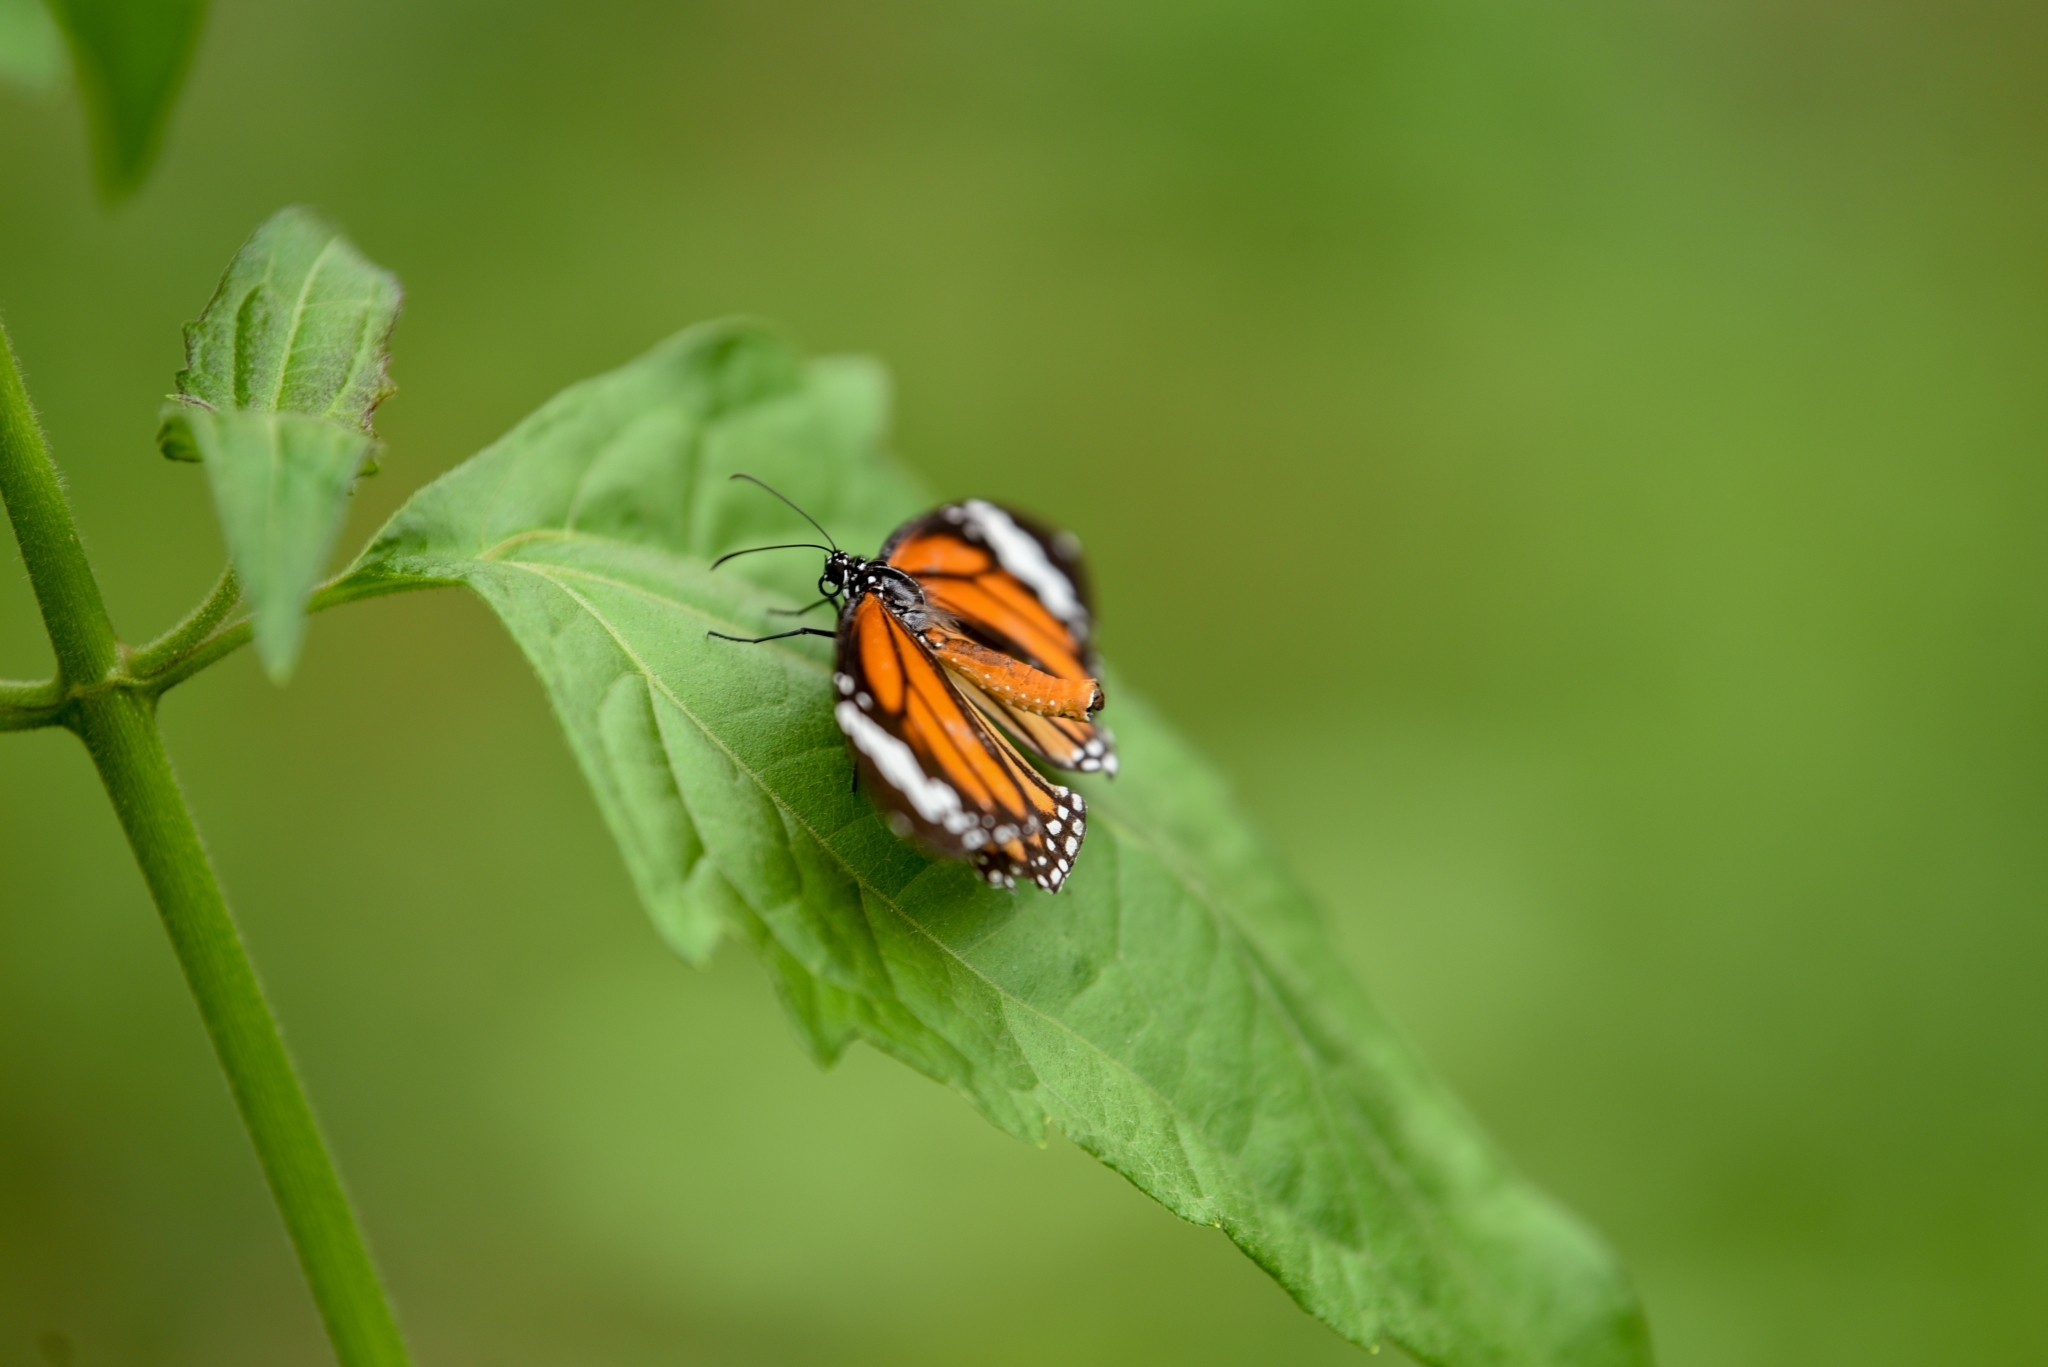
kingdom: Animalia
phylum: Arthropoda
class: Insecta
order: Lepidoptera
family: Nymphalidae
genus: Danaus
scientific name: Danaus genutia
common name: Common tiger butterfly
